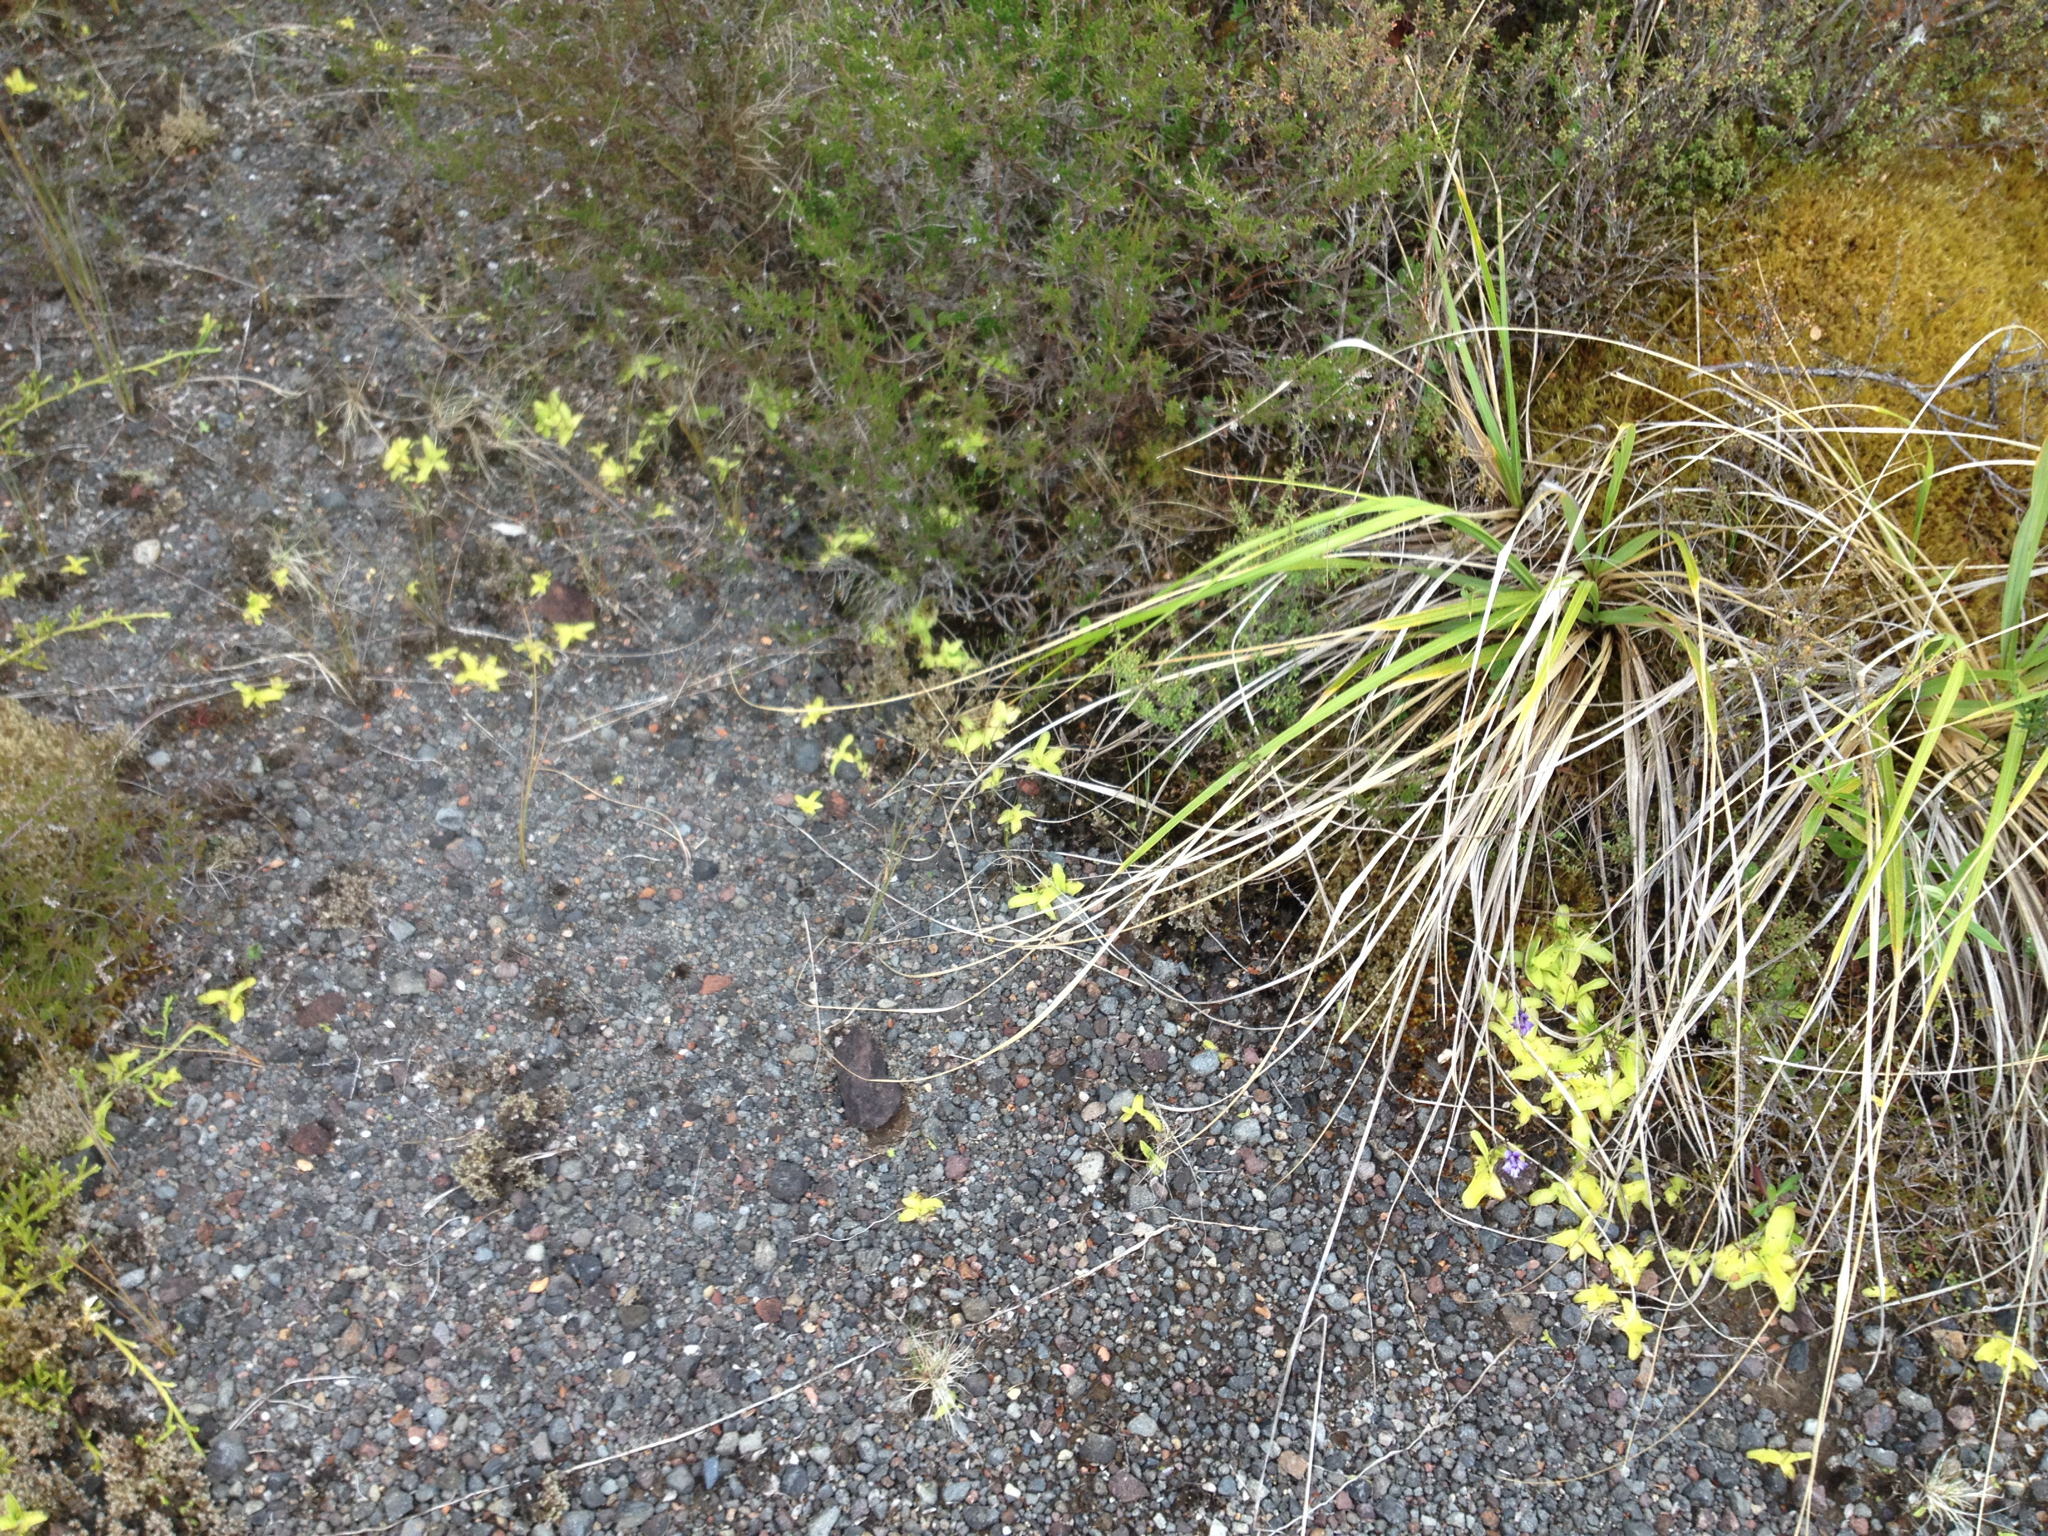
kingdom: Plantae
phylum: Tracheophyta
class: Magnoliopsida
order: Lamiales
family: Lentibulariaceae
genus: Pinguicula
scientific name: Pinguicula grandiflora
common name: Large-flowered butterwort
